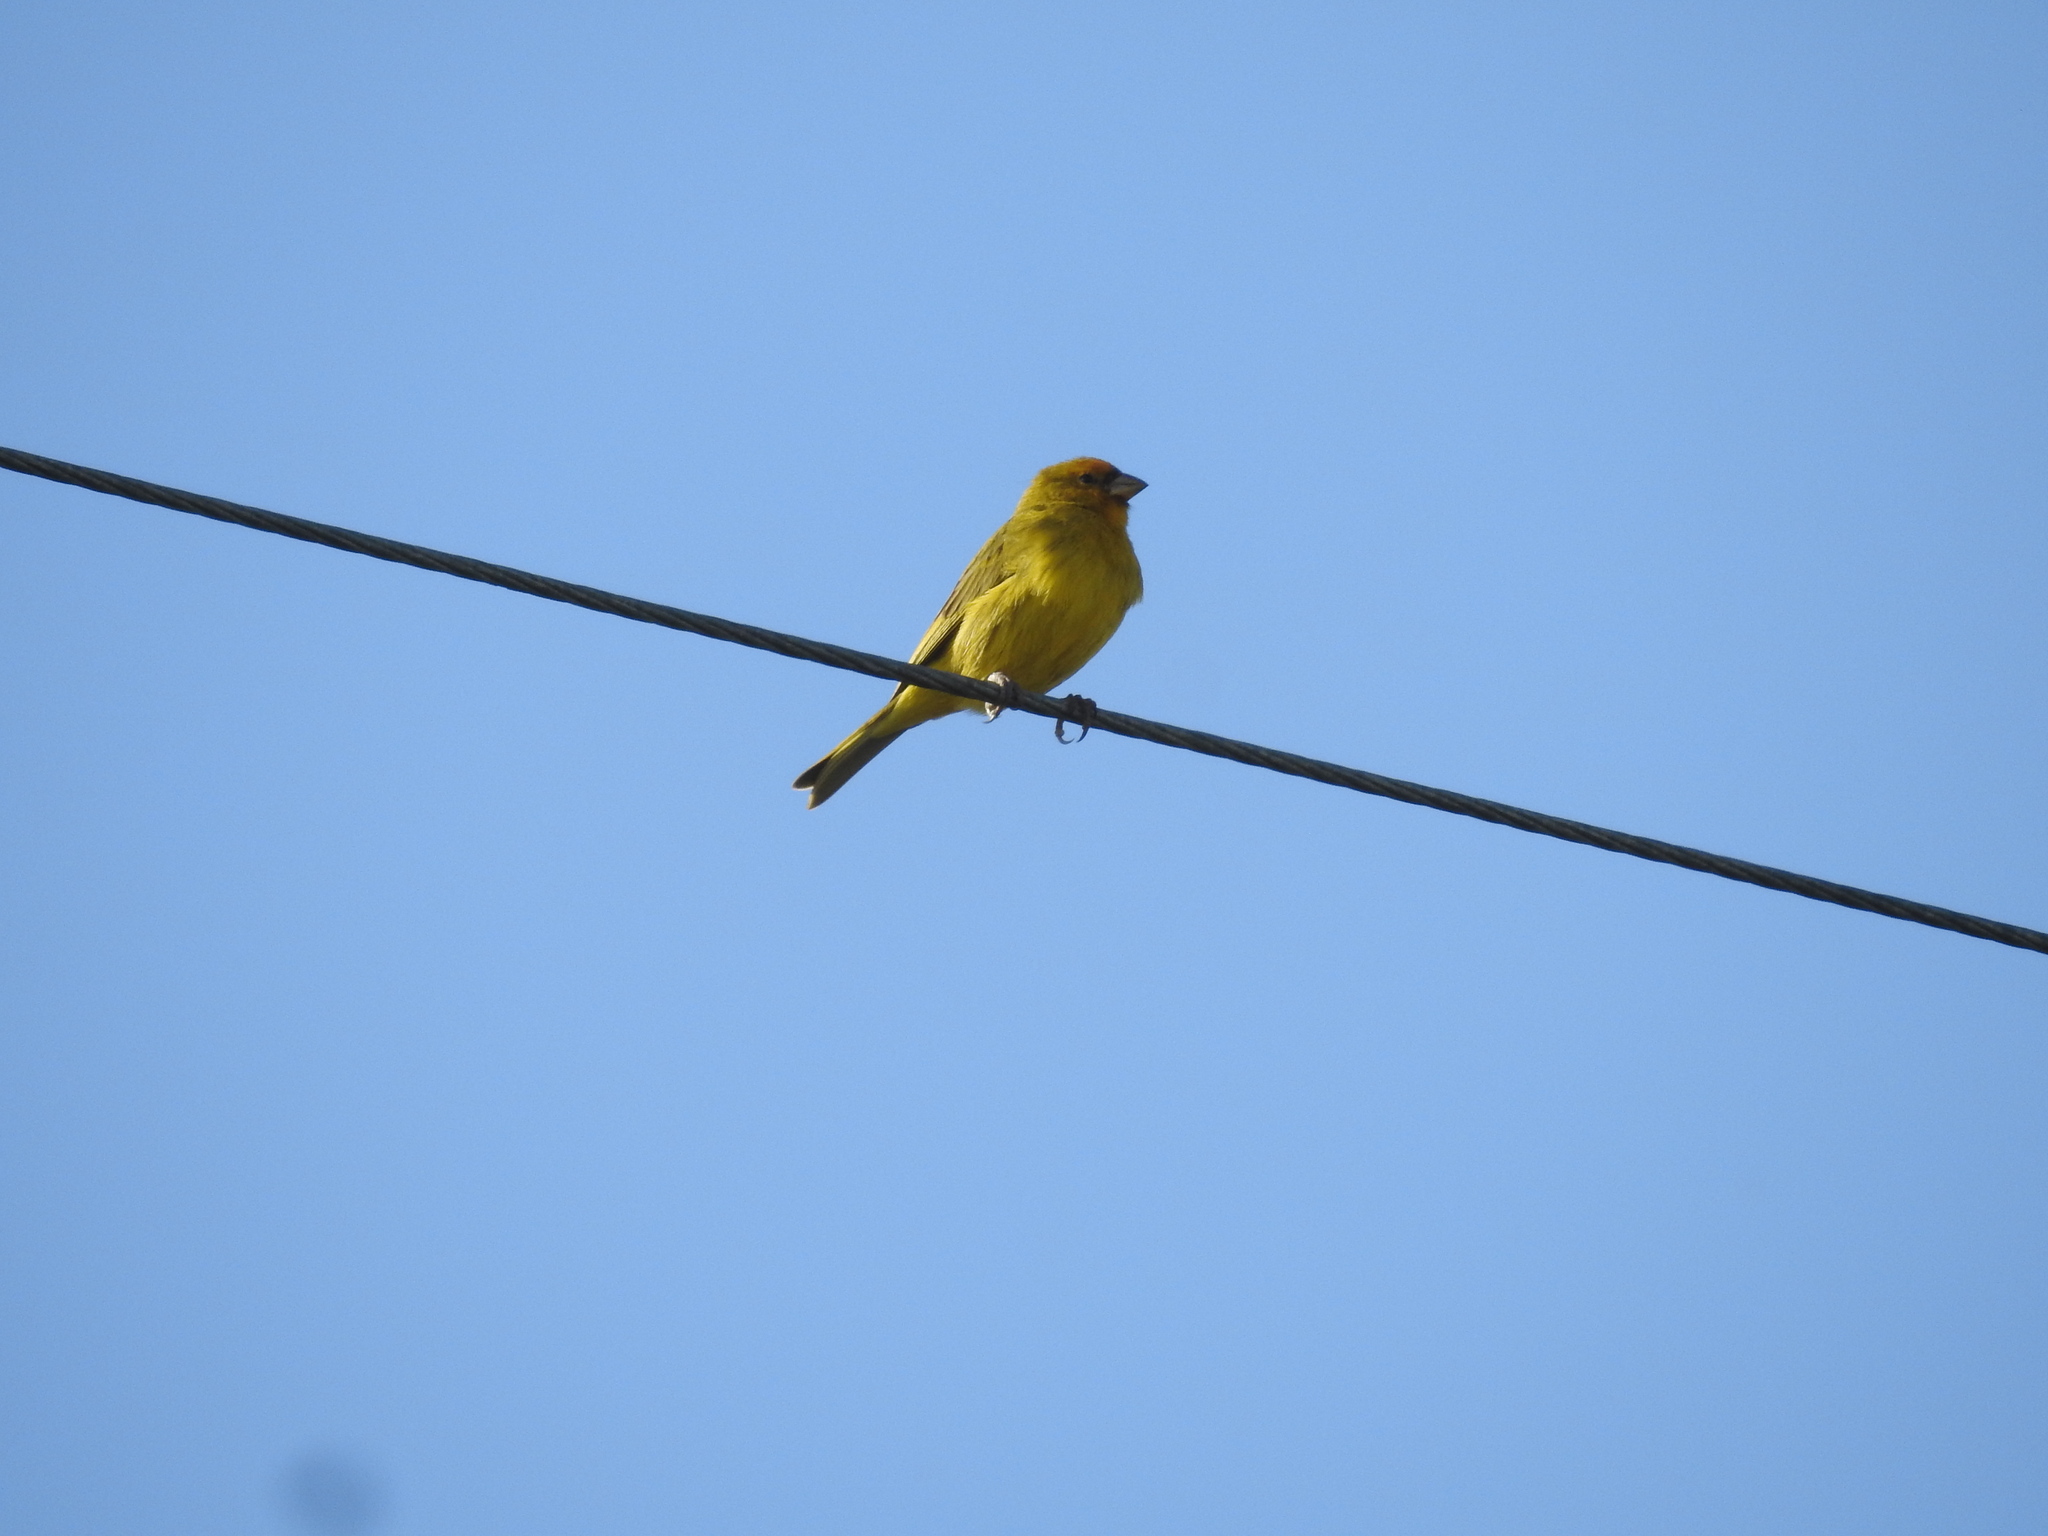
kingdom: Animalia
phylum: Chordata
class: Aves
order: Passeriformes
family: Thraupidae
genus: Sicalis
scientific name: Sicalis flaveola
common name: Saffron finch
